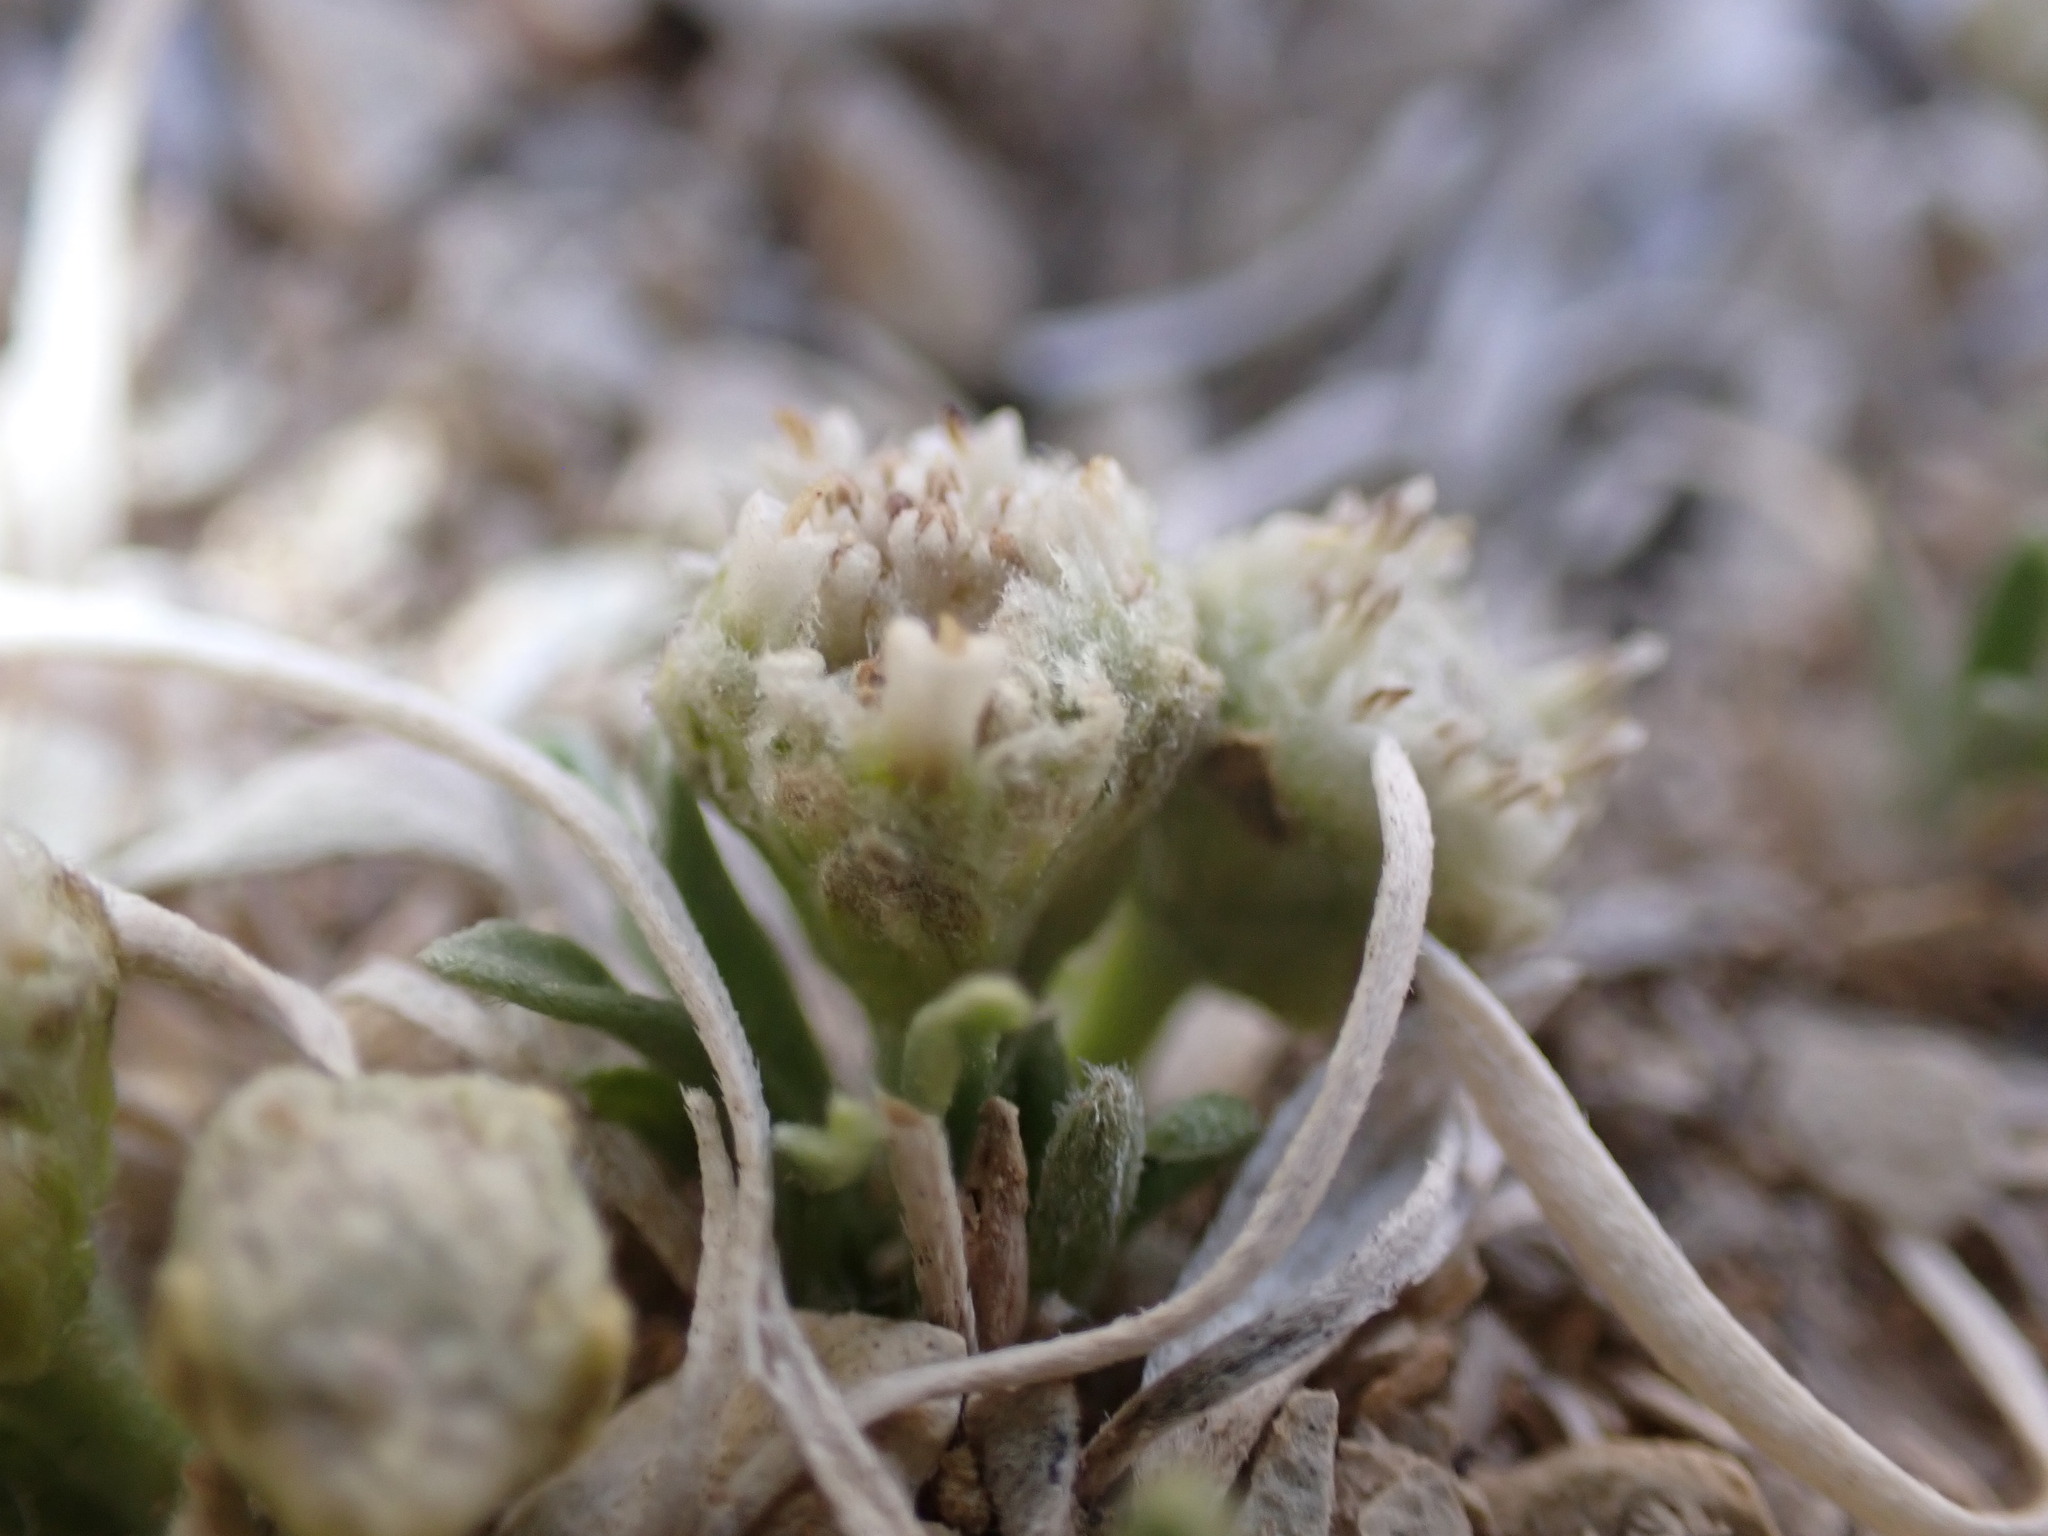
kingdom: Plantae
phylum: Tracheophyta
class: Magnoliopsida
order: Asterales
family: Asteraceae
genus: Parthenium
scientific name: Parthenium tetraneuris
